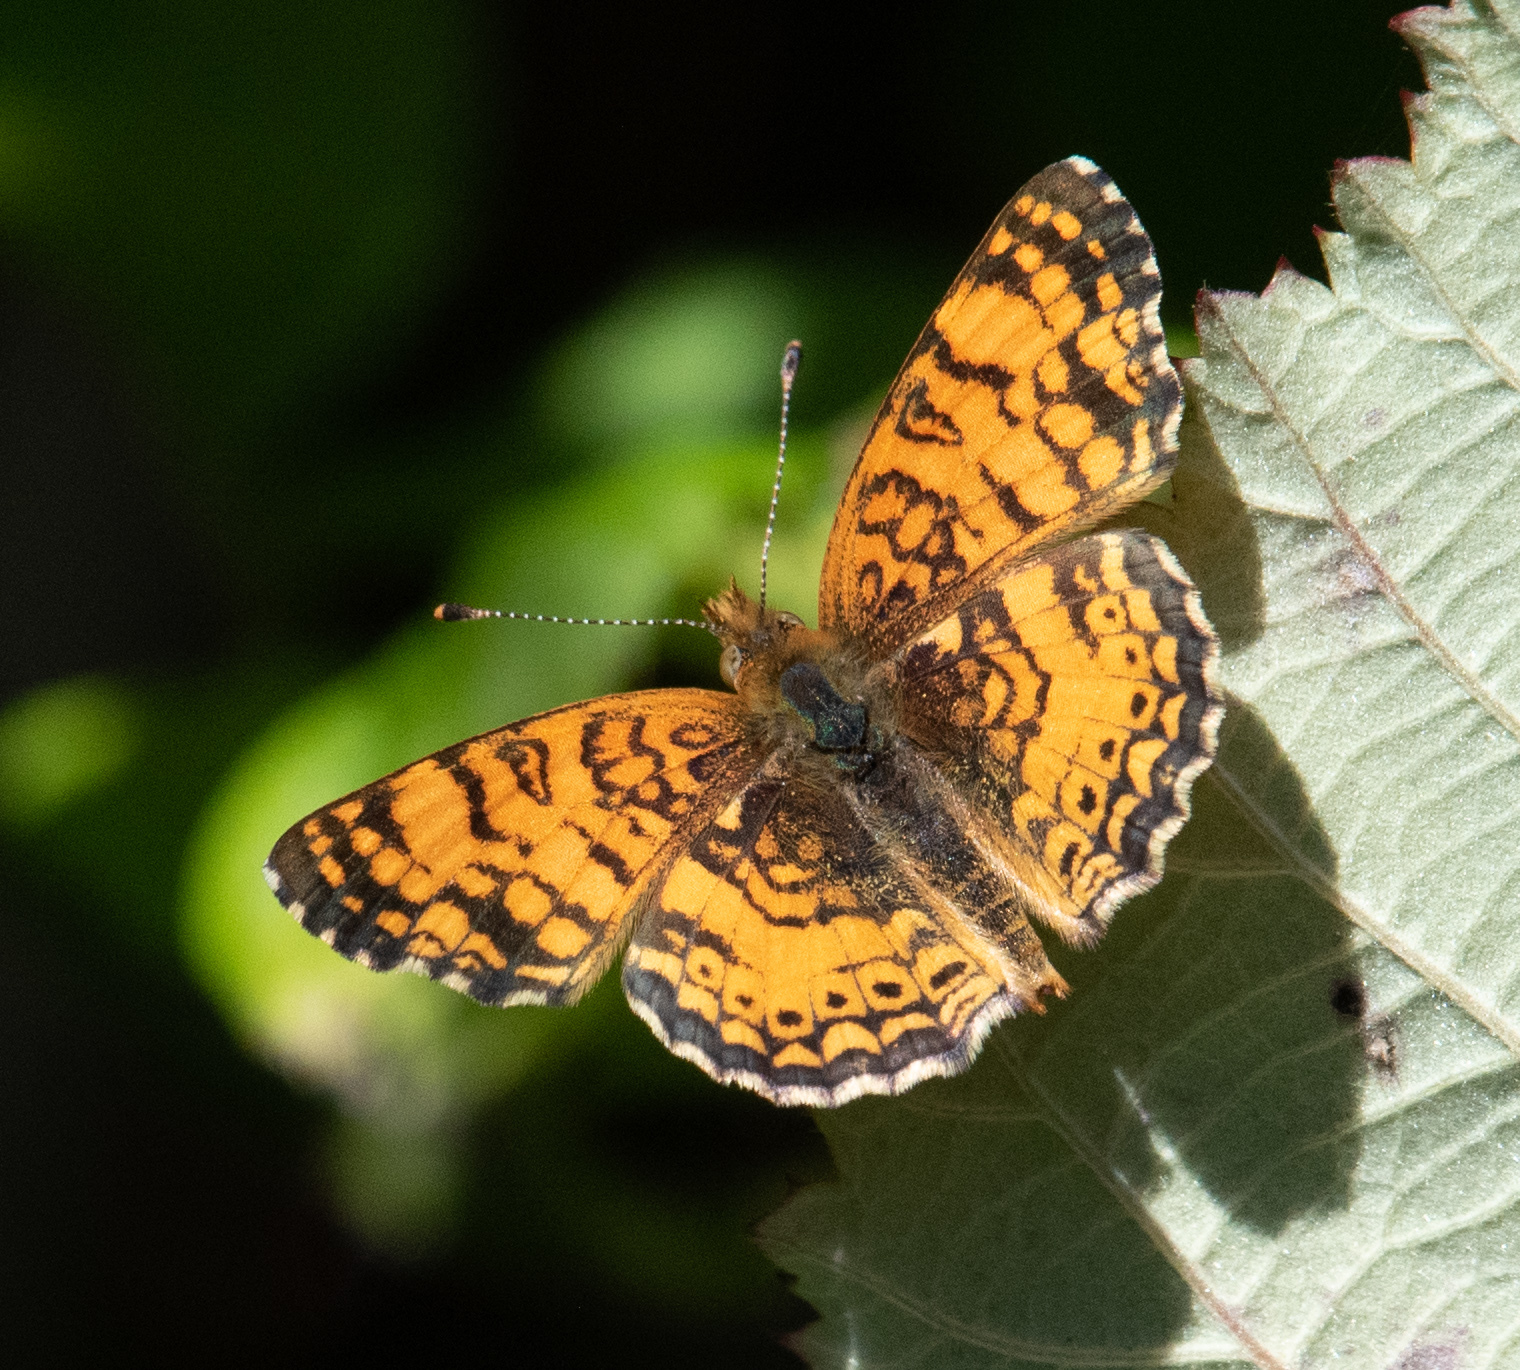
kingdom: Animalia
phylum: Arthropoda
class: Insecta
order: Lepidoptera
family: Nymphalidae
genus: Eresia
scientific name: Eresia aveyrona
